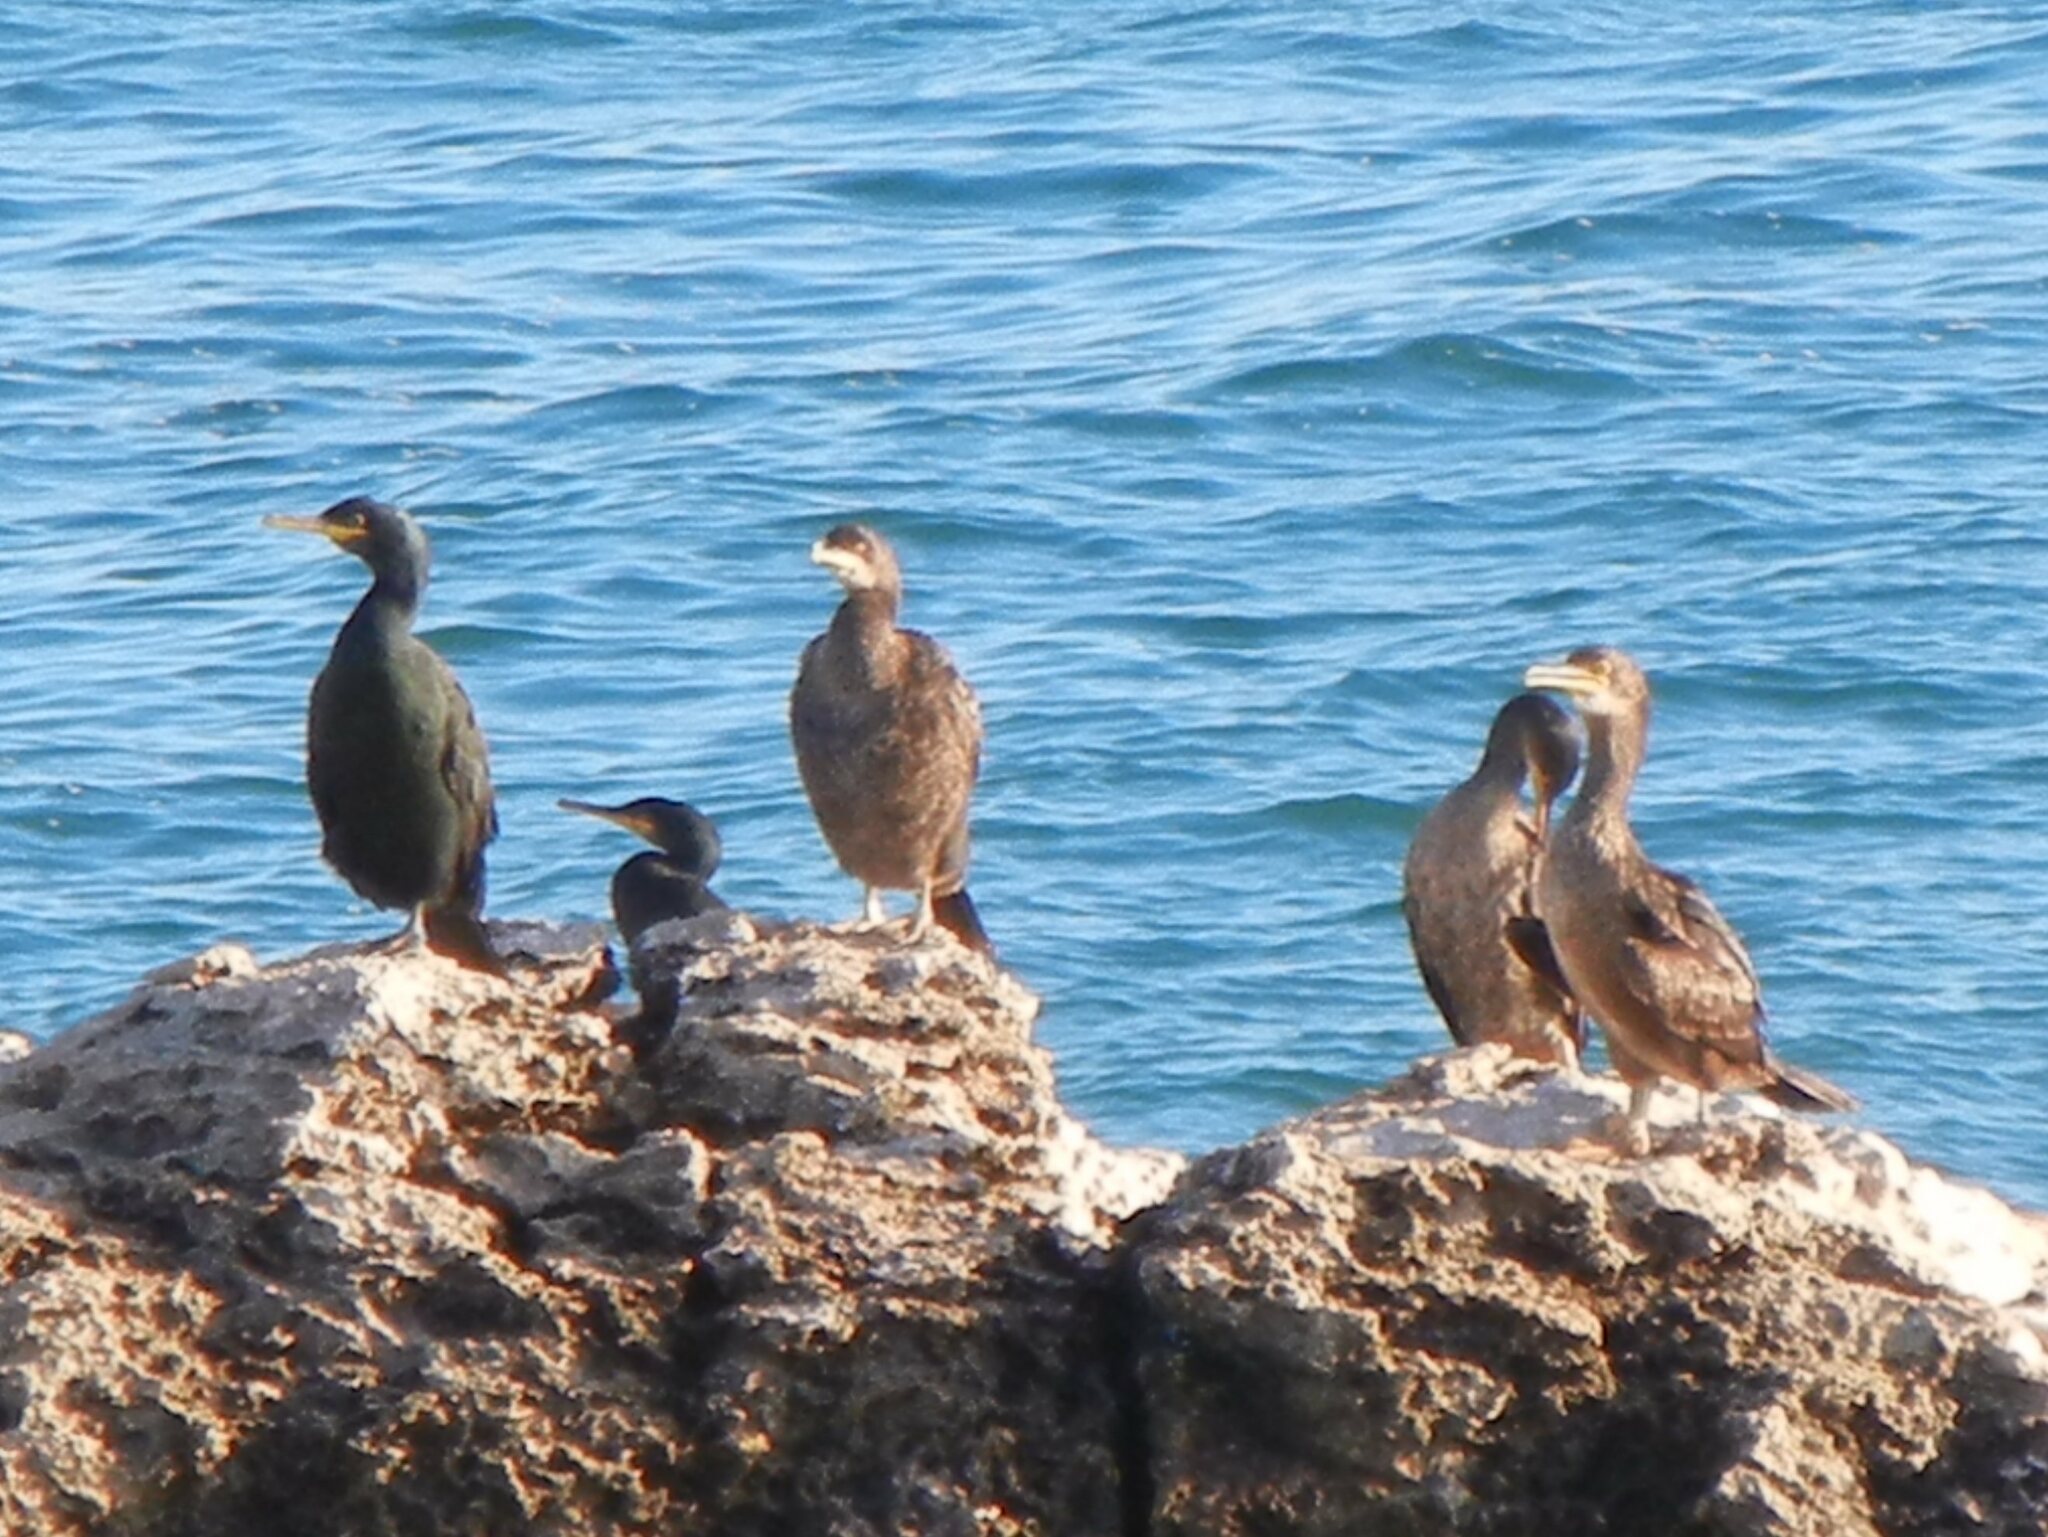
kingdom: Animalia
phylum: Chordata
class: Aves
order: Suliformes
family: Phalacrocoracidae
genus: Phalacrocorax
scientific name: Phalacrocorax aristotelis
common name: European shag
